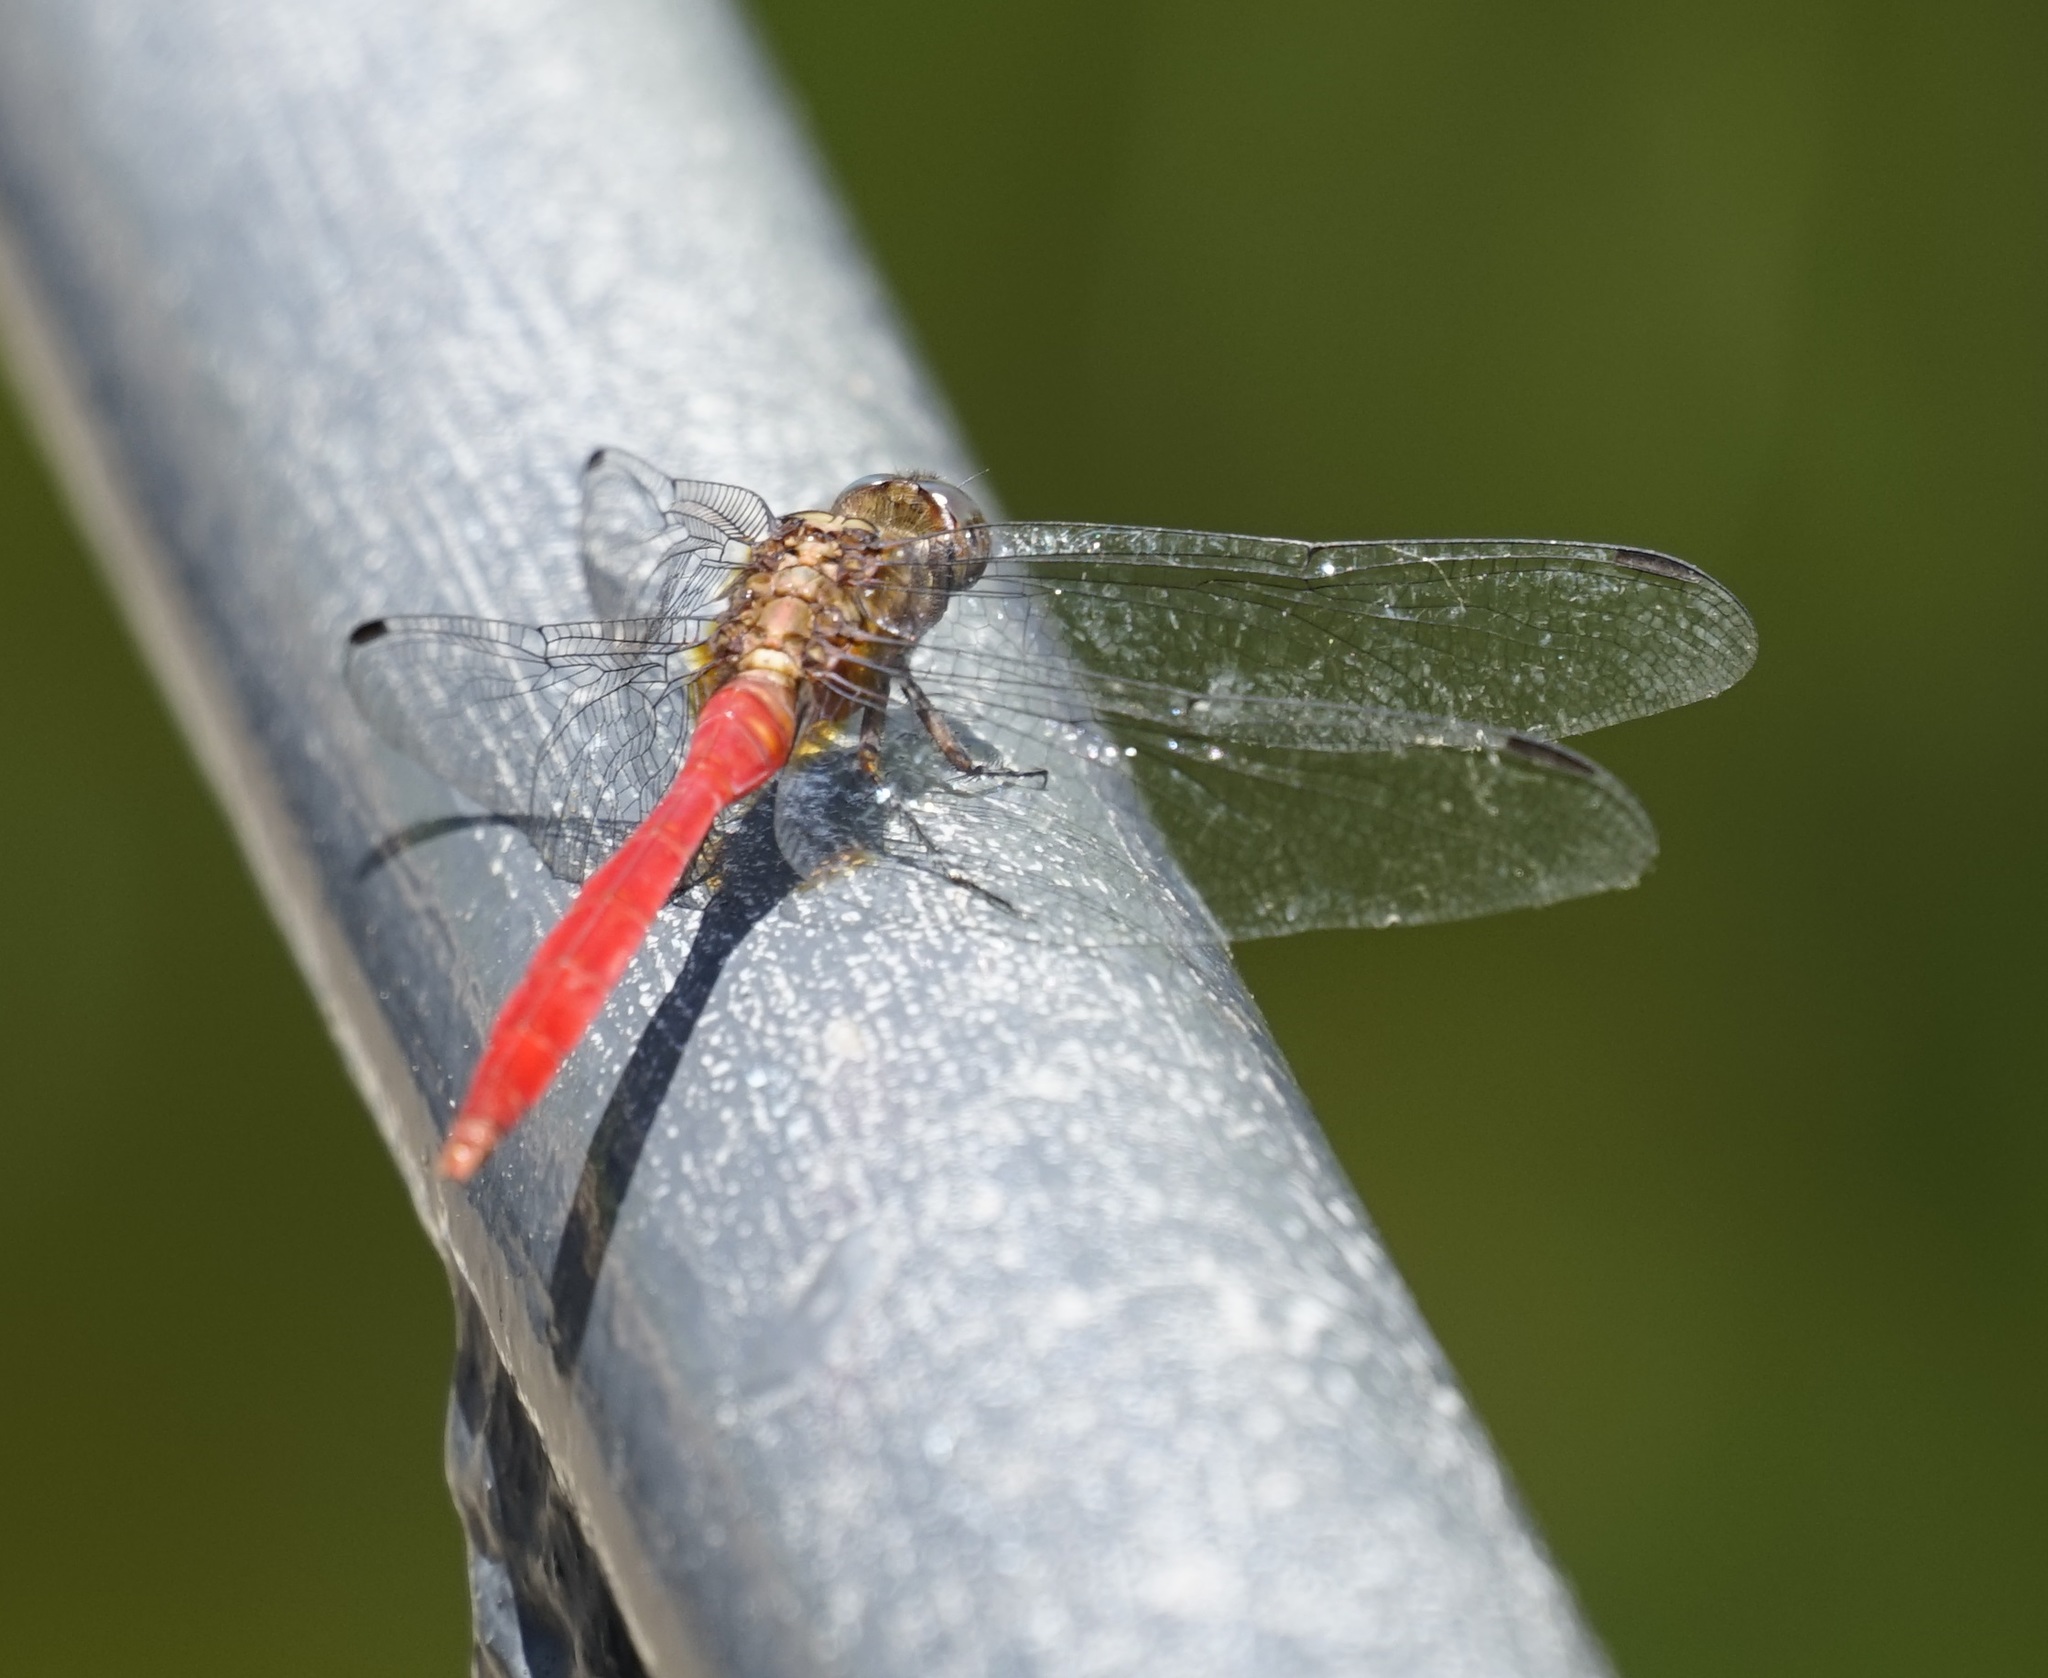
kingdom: Animalia
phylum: Arthropoda
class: Insecta
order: Odonata
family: Libellulidae
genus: Orthetrum
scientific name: Orthetrum villosovittatum
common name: Firery skimmer
